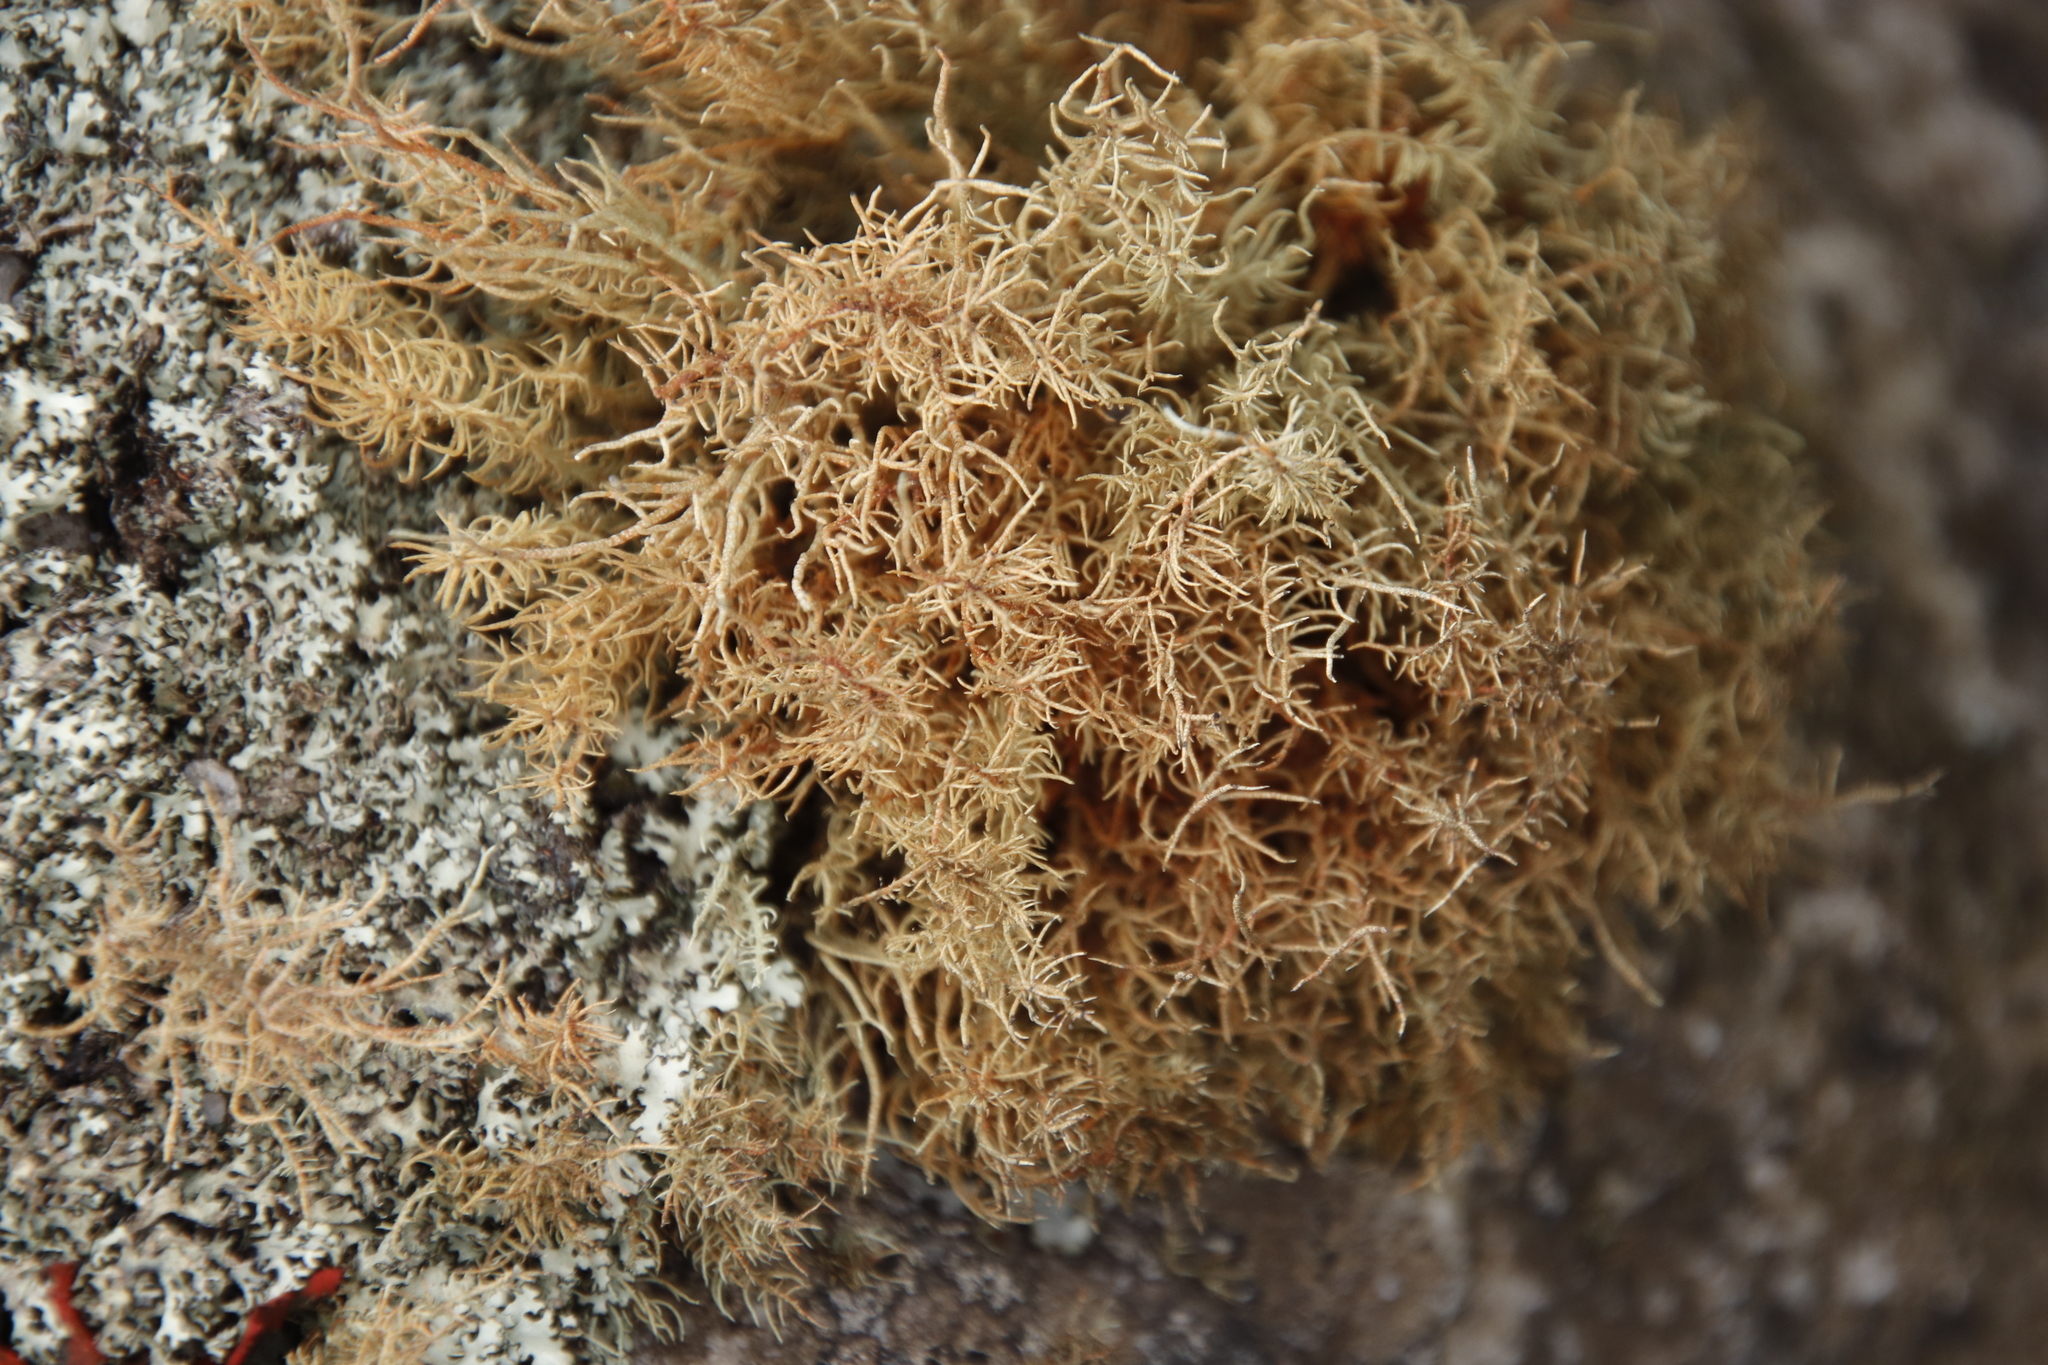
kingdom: Fungi
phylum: Ascomycota
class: Lecanoromycetes
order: Lecanorales
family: Parmeliaceae
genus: Usnea
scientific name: Usnea maculata
